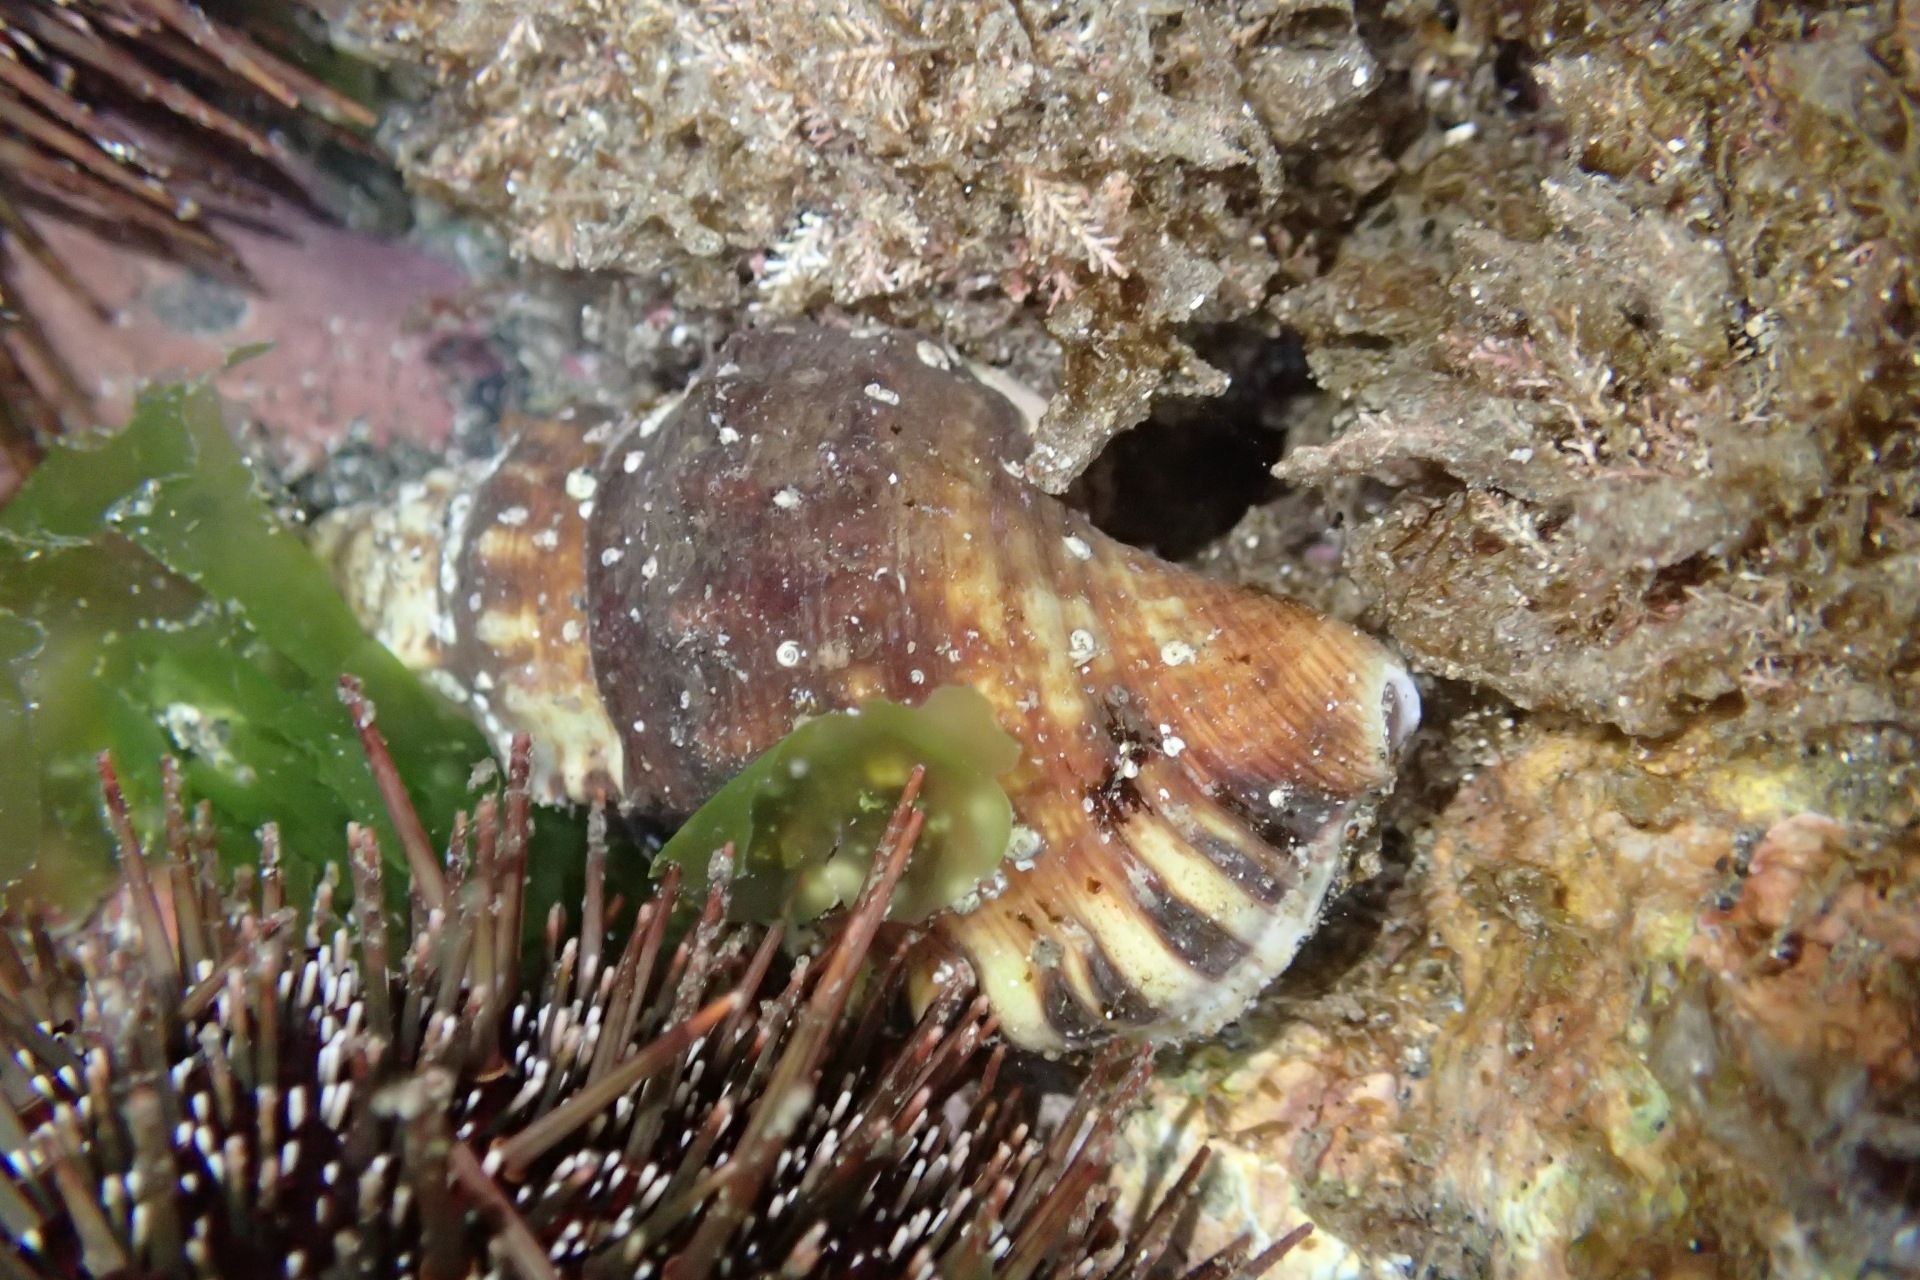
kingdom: Animalia
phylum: Mollusca
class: Gastropoda
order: Littorinimorpha
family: Ranellidae
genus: Ranella
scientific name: Ranella australasia
